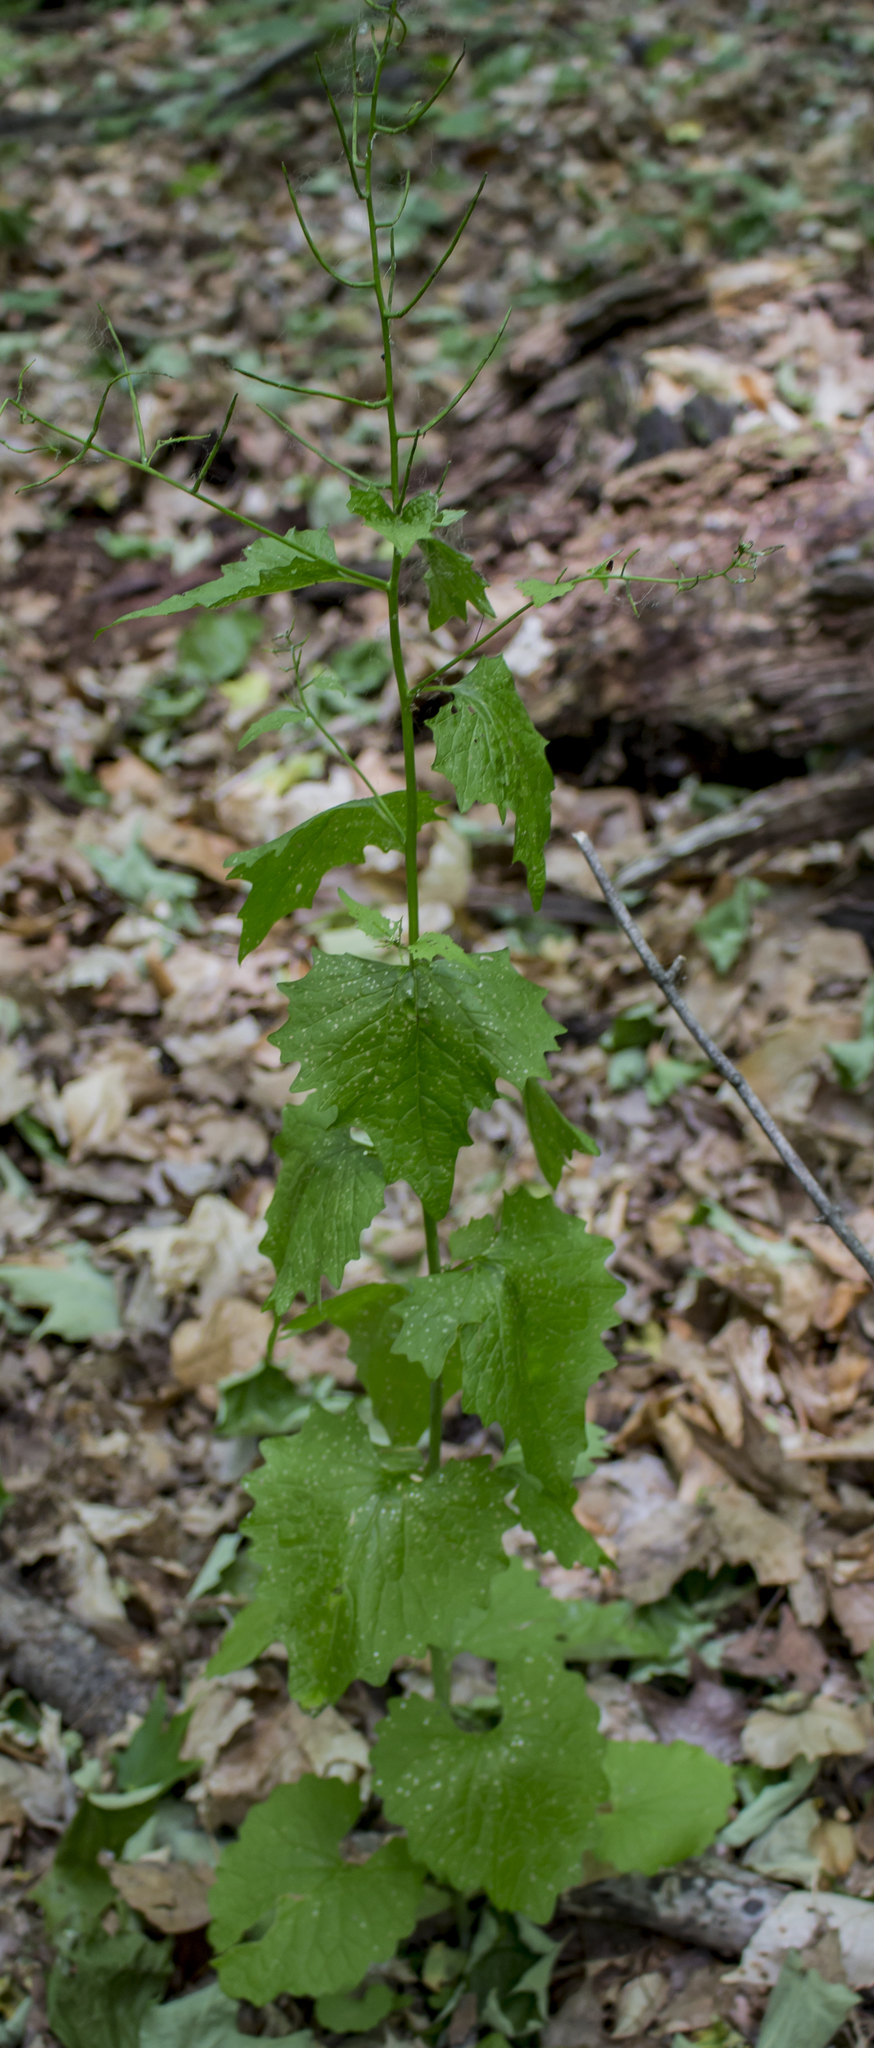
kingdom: Plantae
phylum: Tracheophyta
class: Magnoliopsida
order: Brassicales
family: Brassicaceae
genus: Alliaria
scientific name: Alliaria petiolata
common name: Garlic mustard
